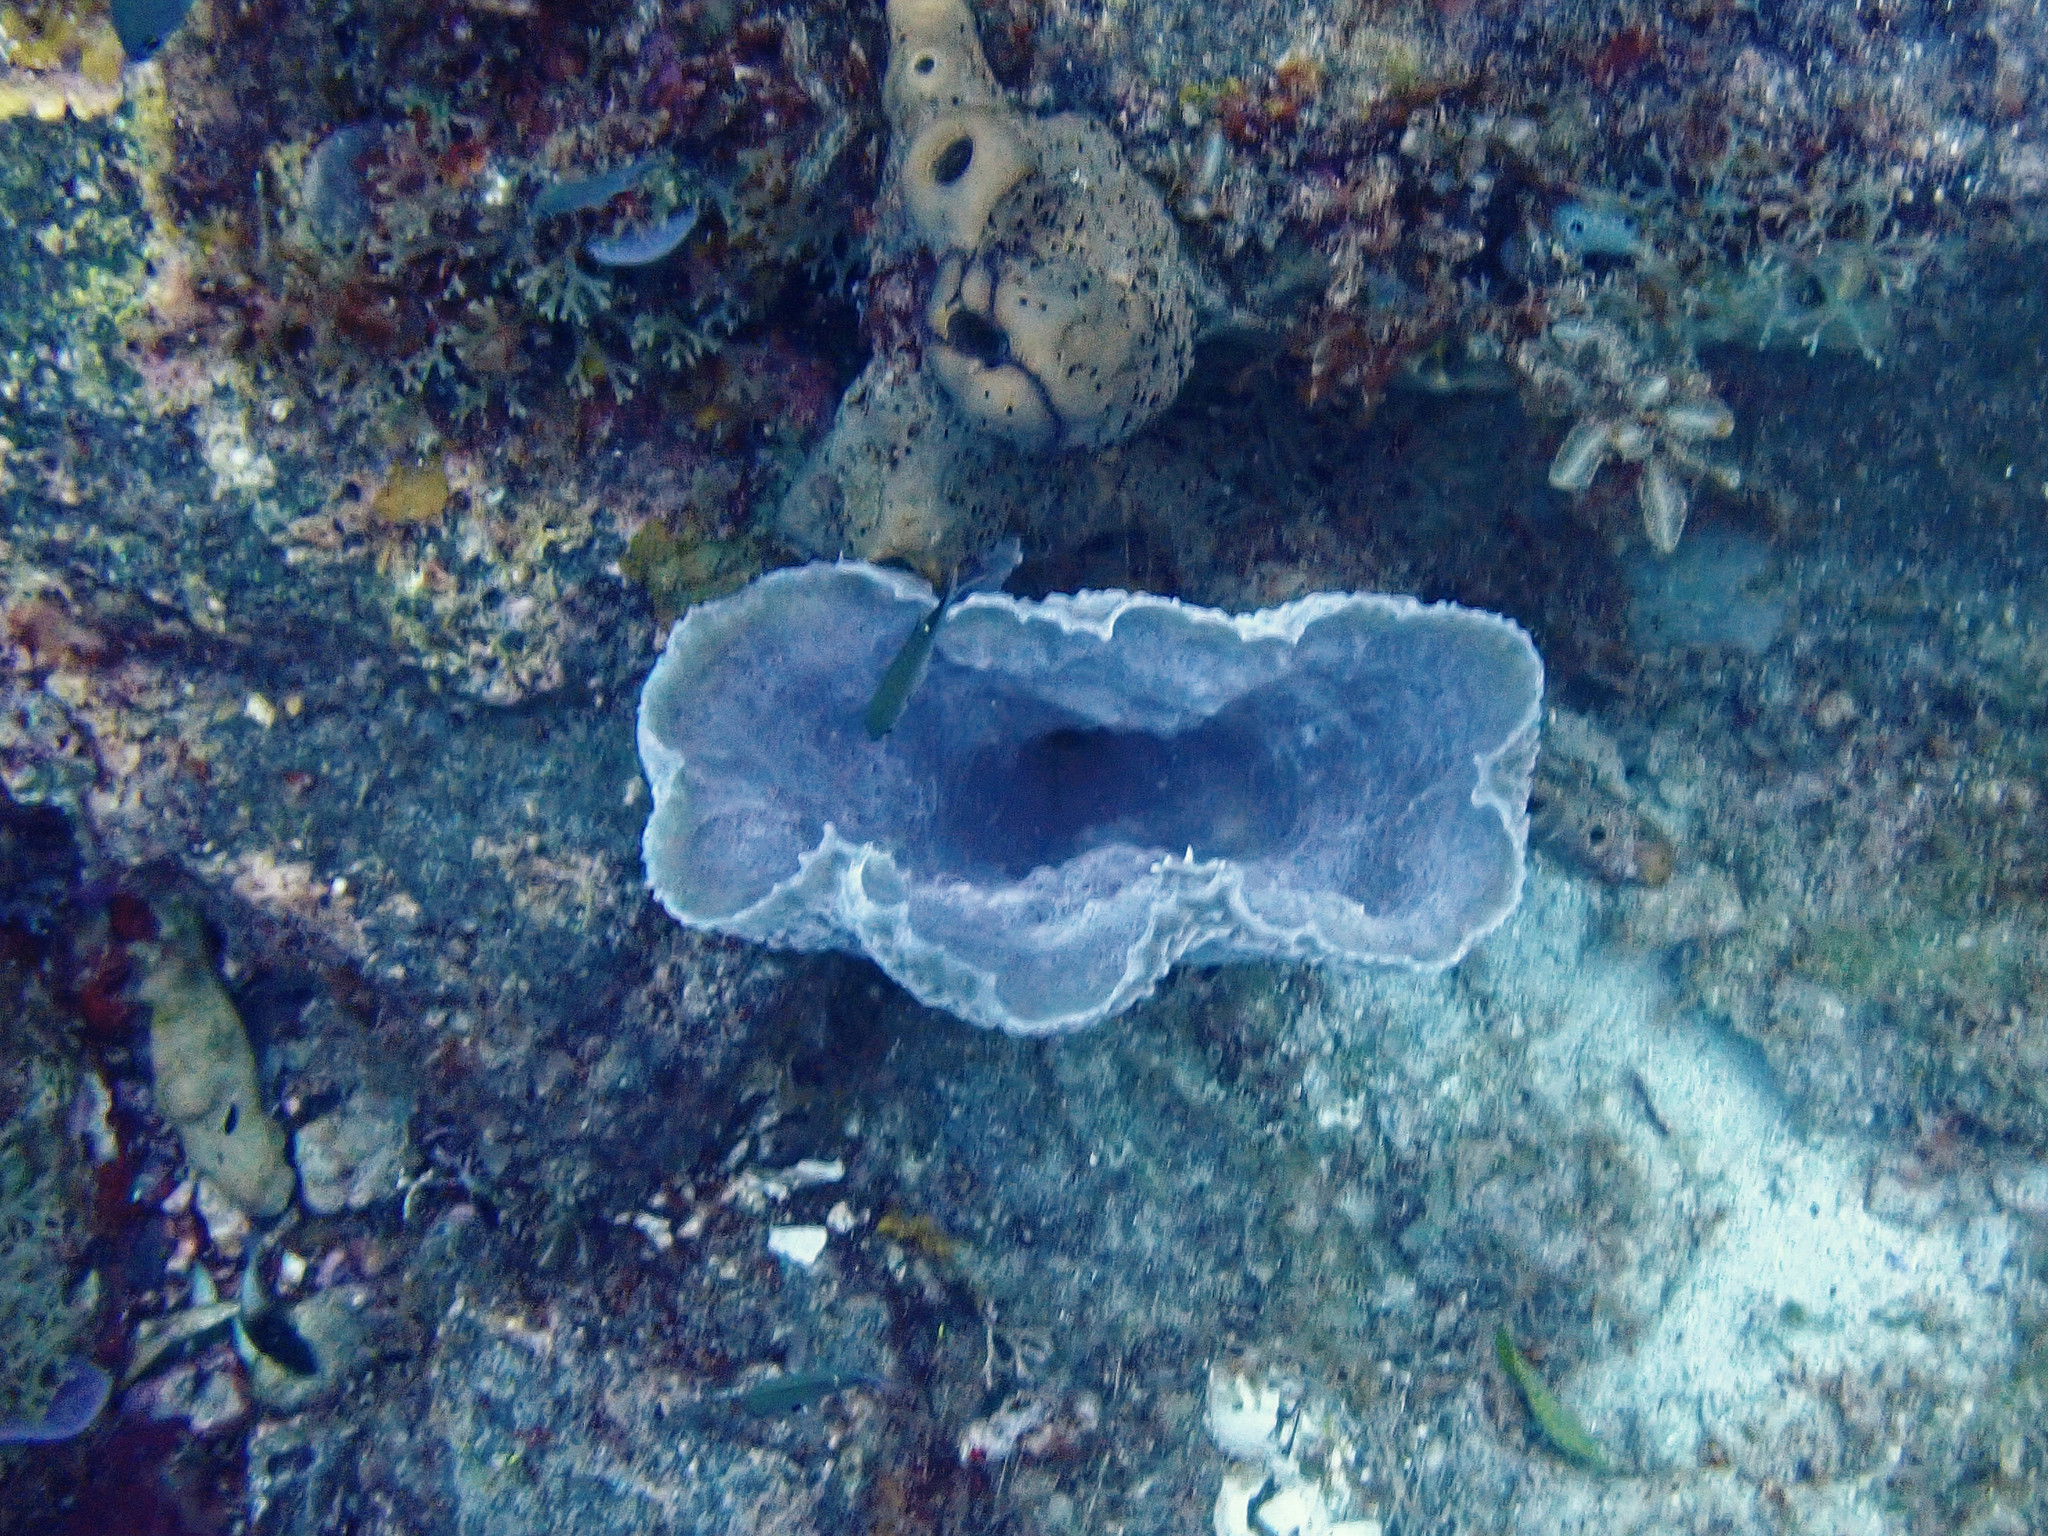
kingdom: Animalia
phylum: Porifera
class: Demospongiae
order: Haplosclerida
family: Callyspongiidae
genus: Callyspongia
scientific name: Callyspongia plicifera
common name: Azure vase sponge
